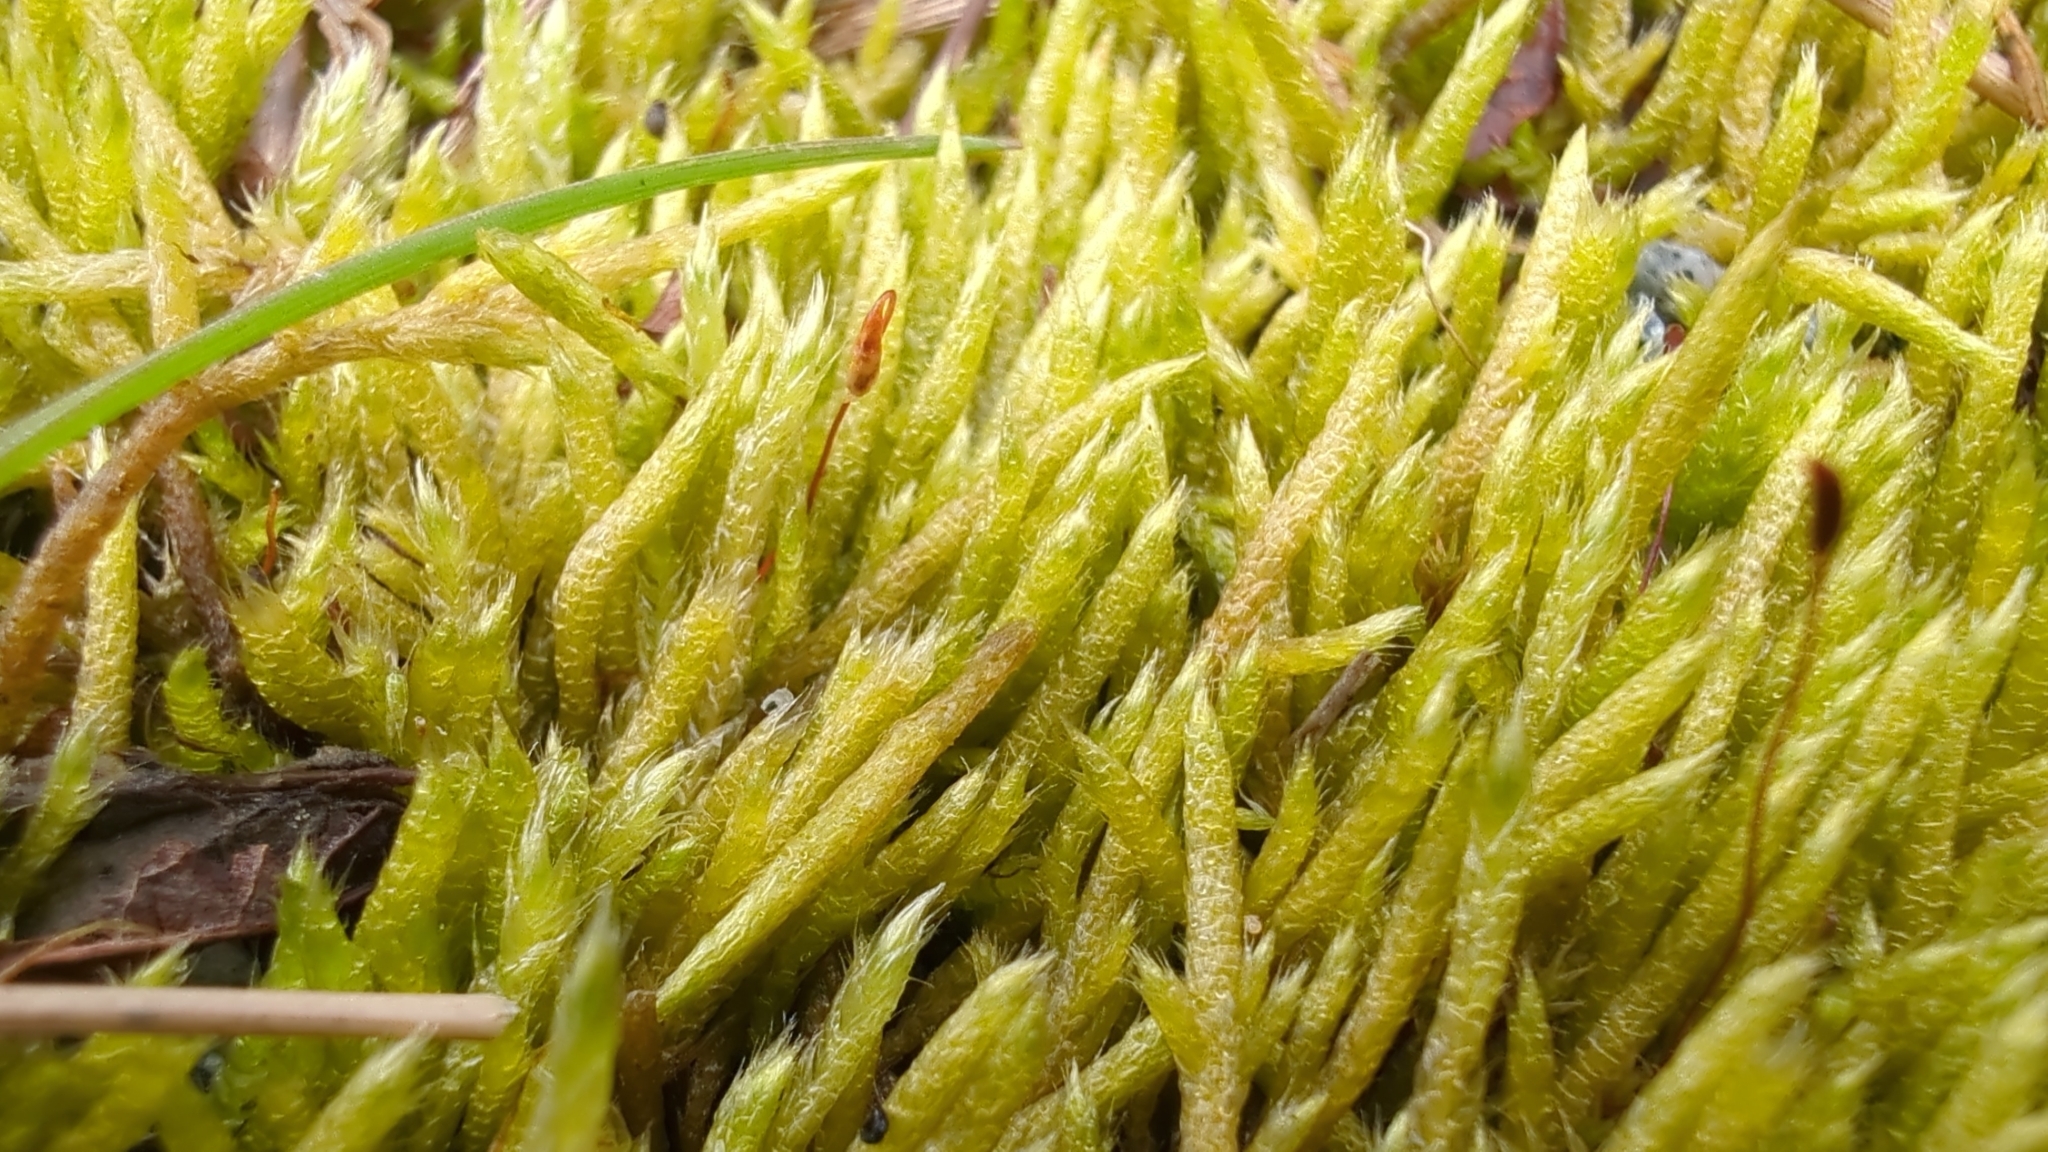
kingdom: Plantae
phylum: Bryophyta
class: Bryopsida
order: Hypnales
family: Brachytheciaceae
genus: Brachythecium
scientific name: Brachythecium albicans
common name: Whitish ragged moss
